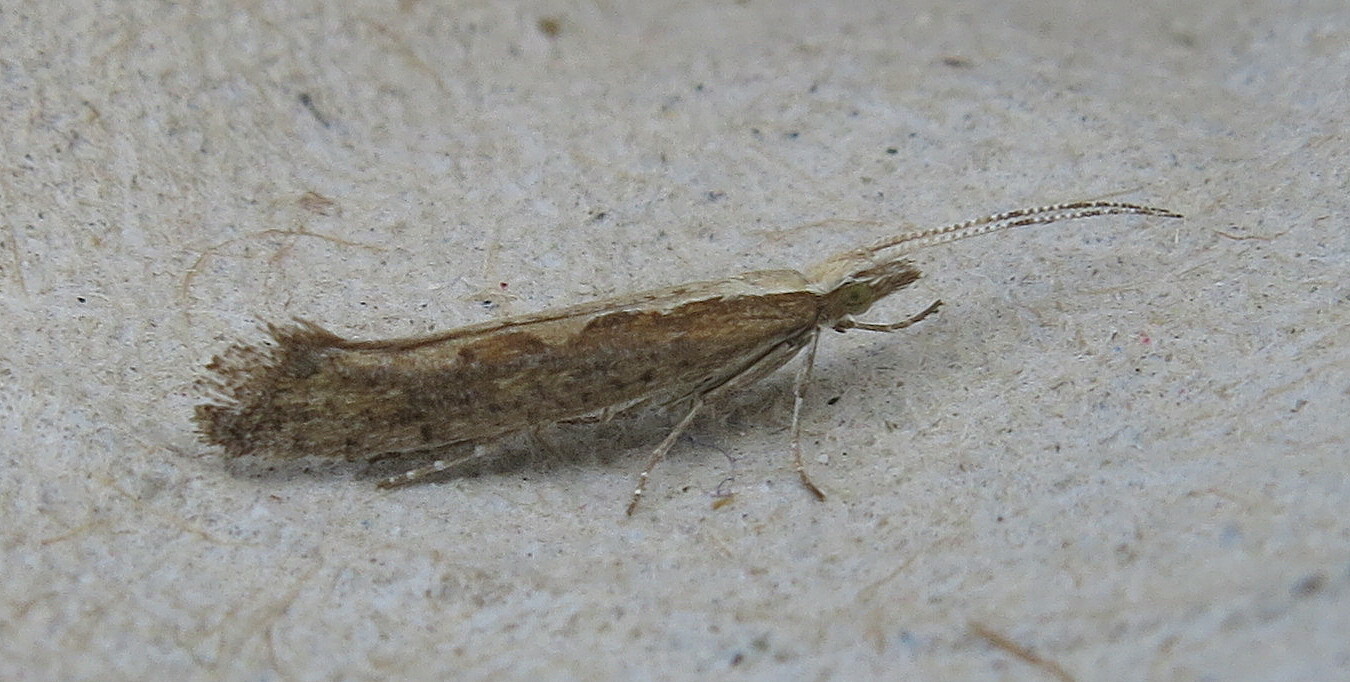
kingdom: Animalia
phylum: Arthropoda
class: Insecta
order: Lepidoptera
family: Plutellidae
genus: Plutella
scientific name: Plutella xylostella
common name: Diamond-back moth
